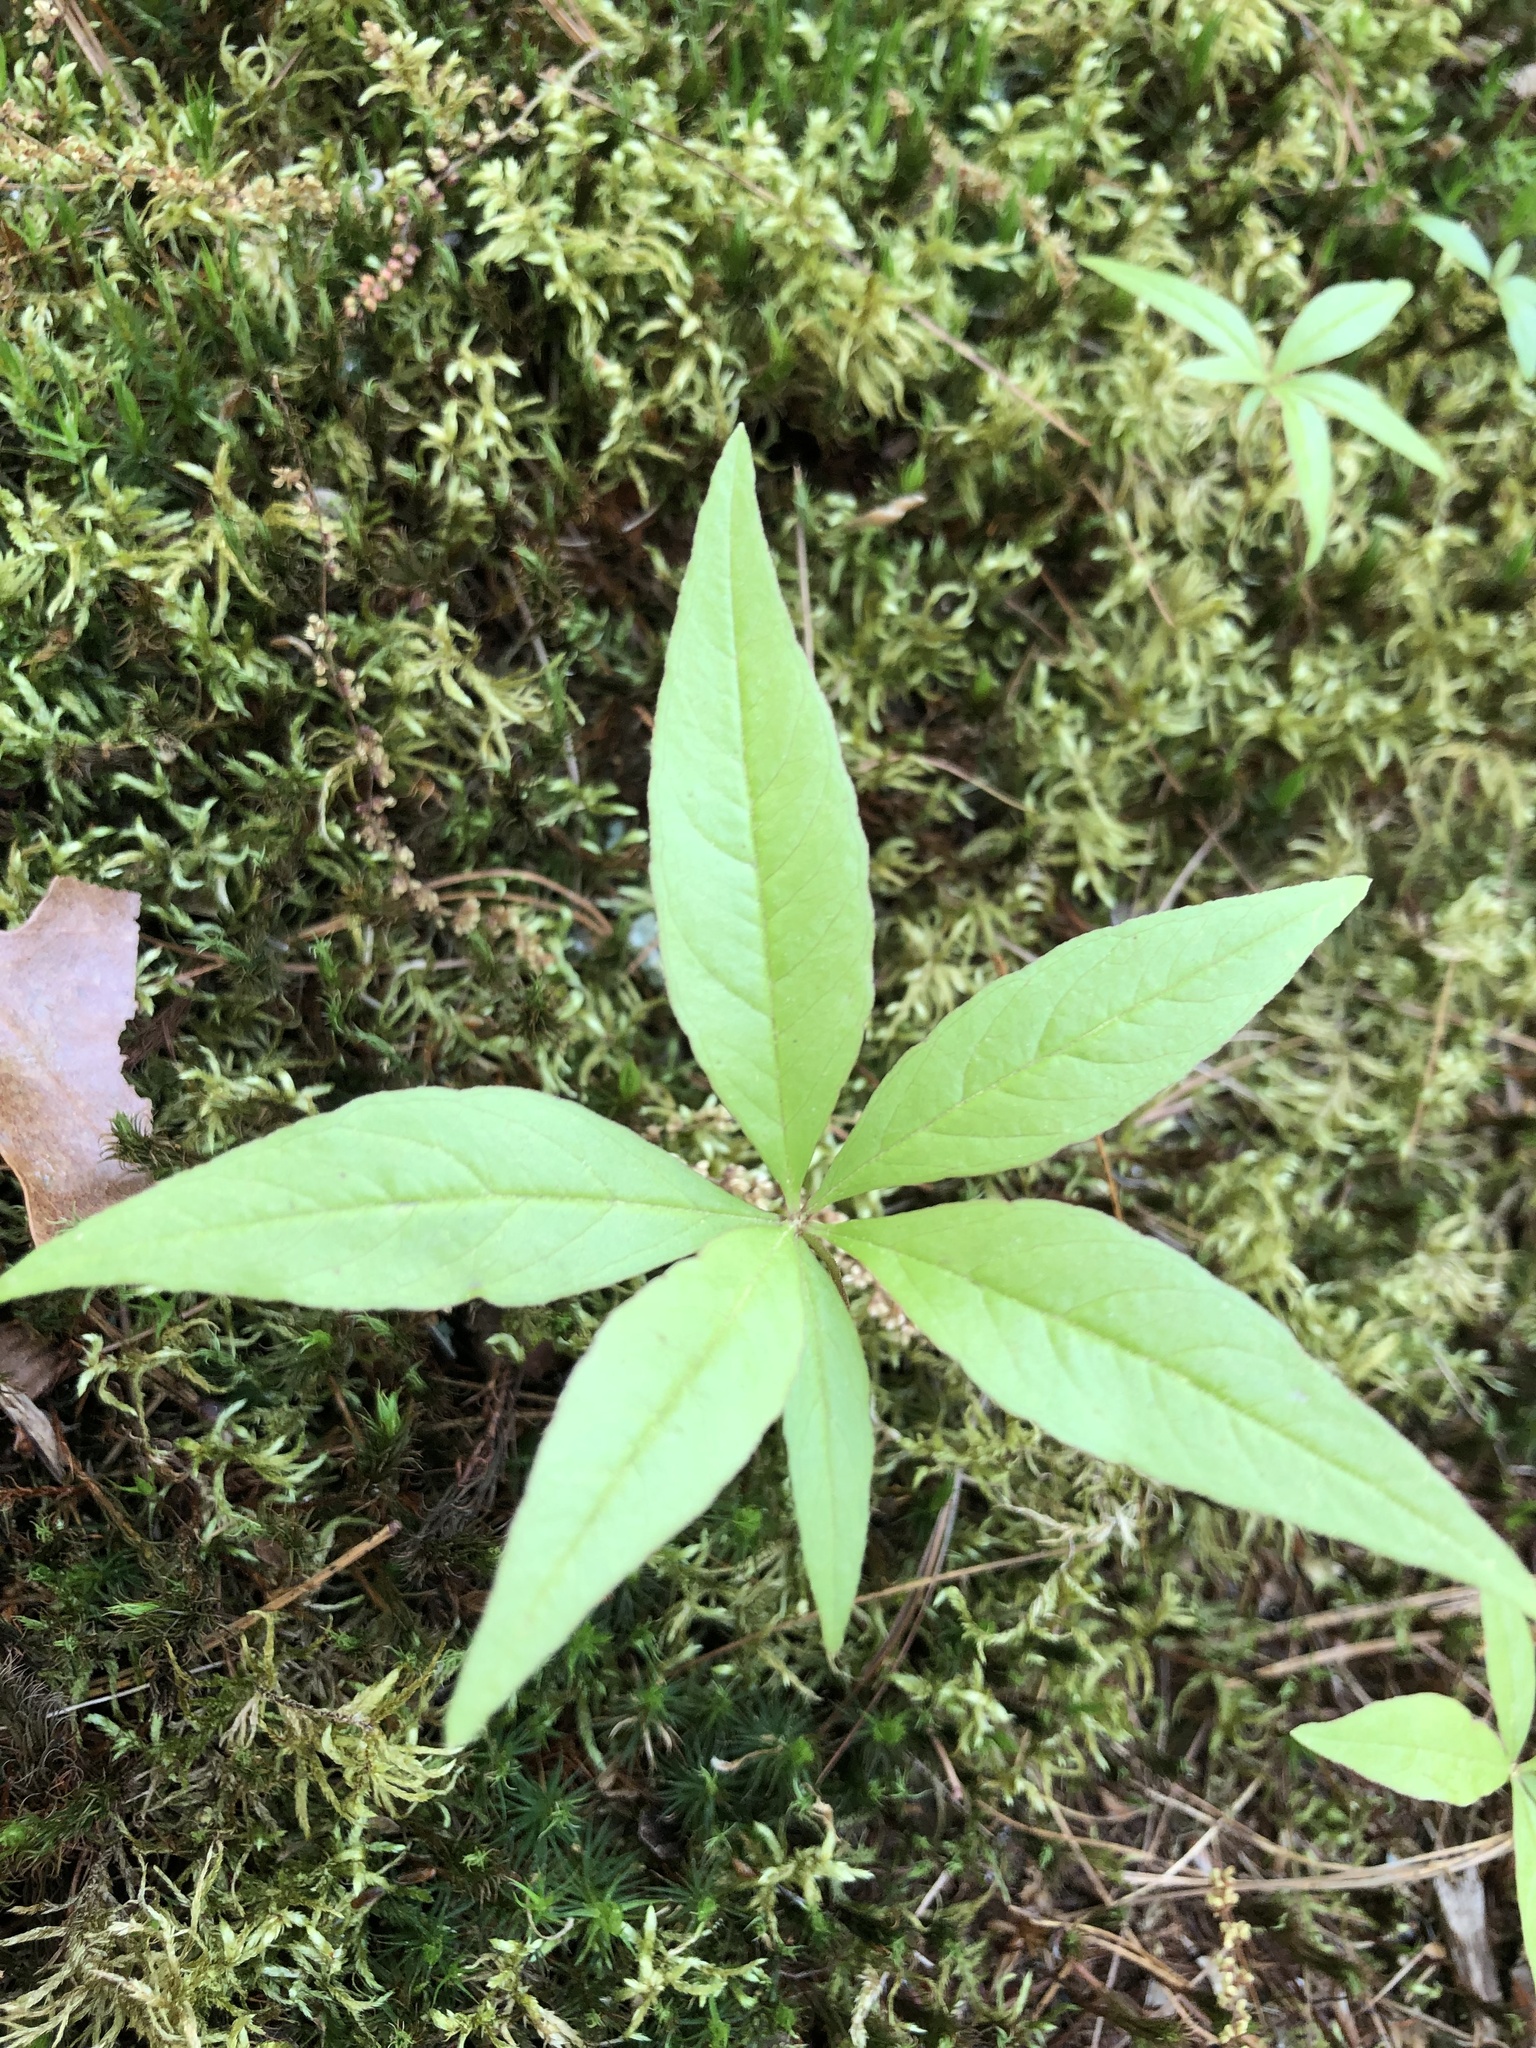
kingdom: Plantae
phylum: Tracheophyta
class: Magnoliopsida
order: Ericales
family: Primulaceae
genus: Lysimachia
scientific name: Lysimachia borealis
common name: American starflower
